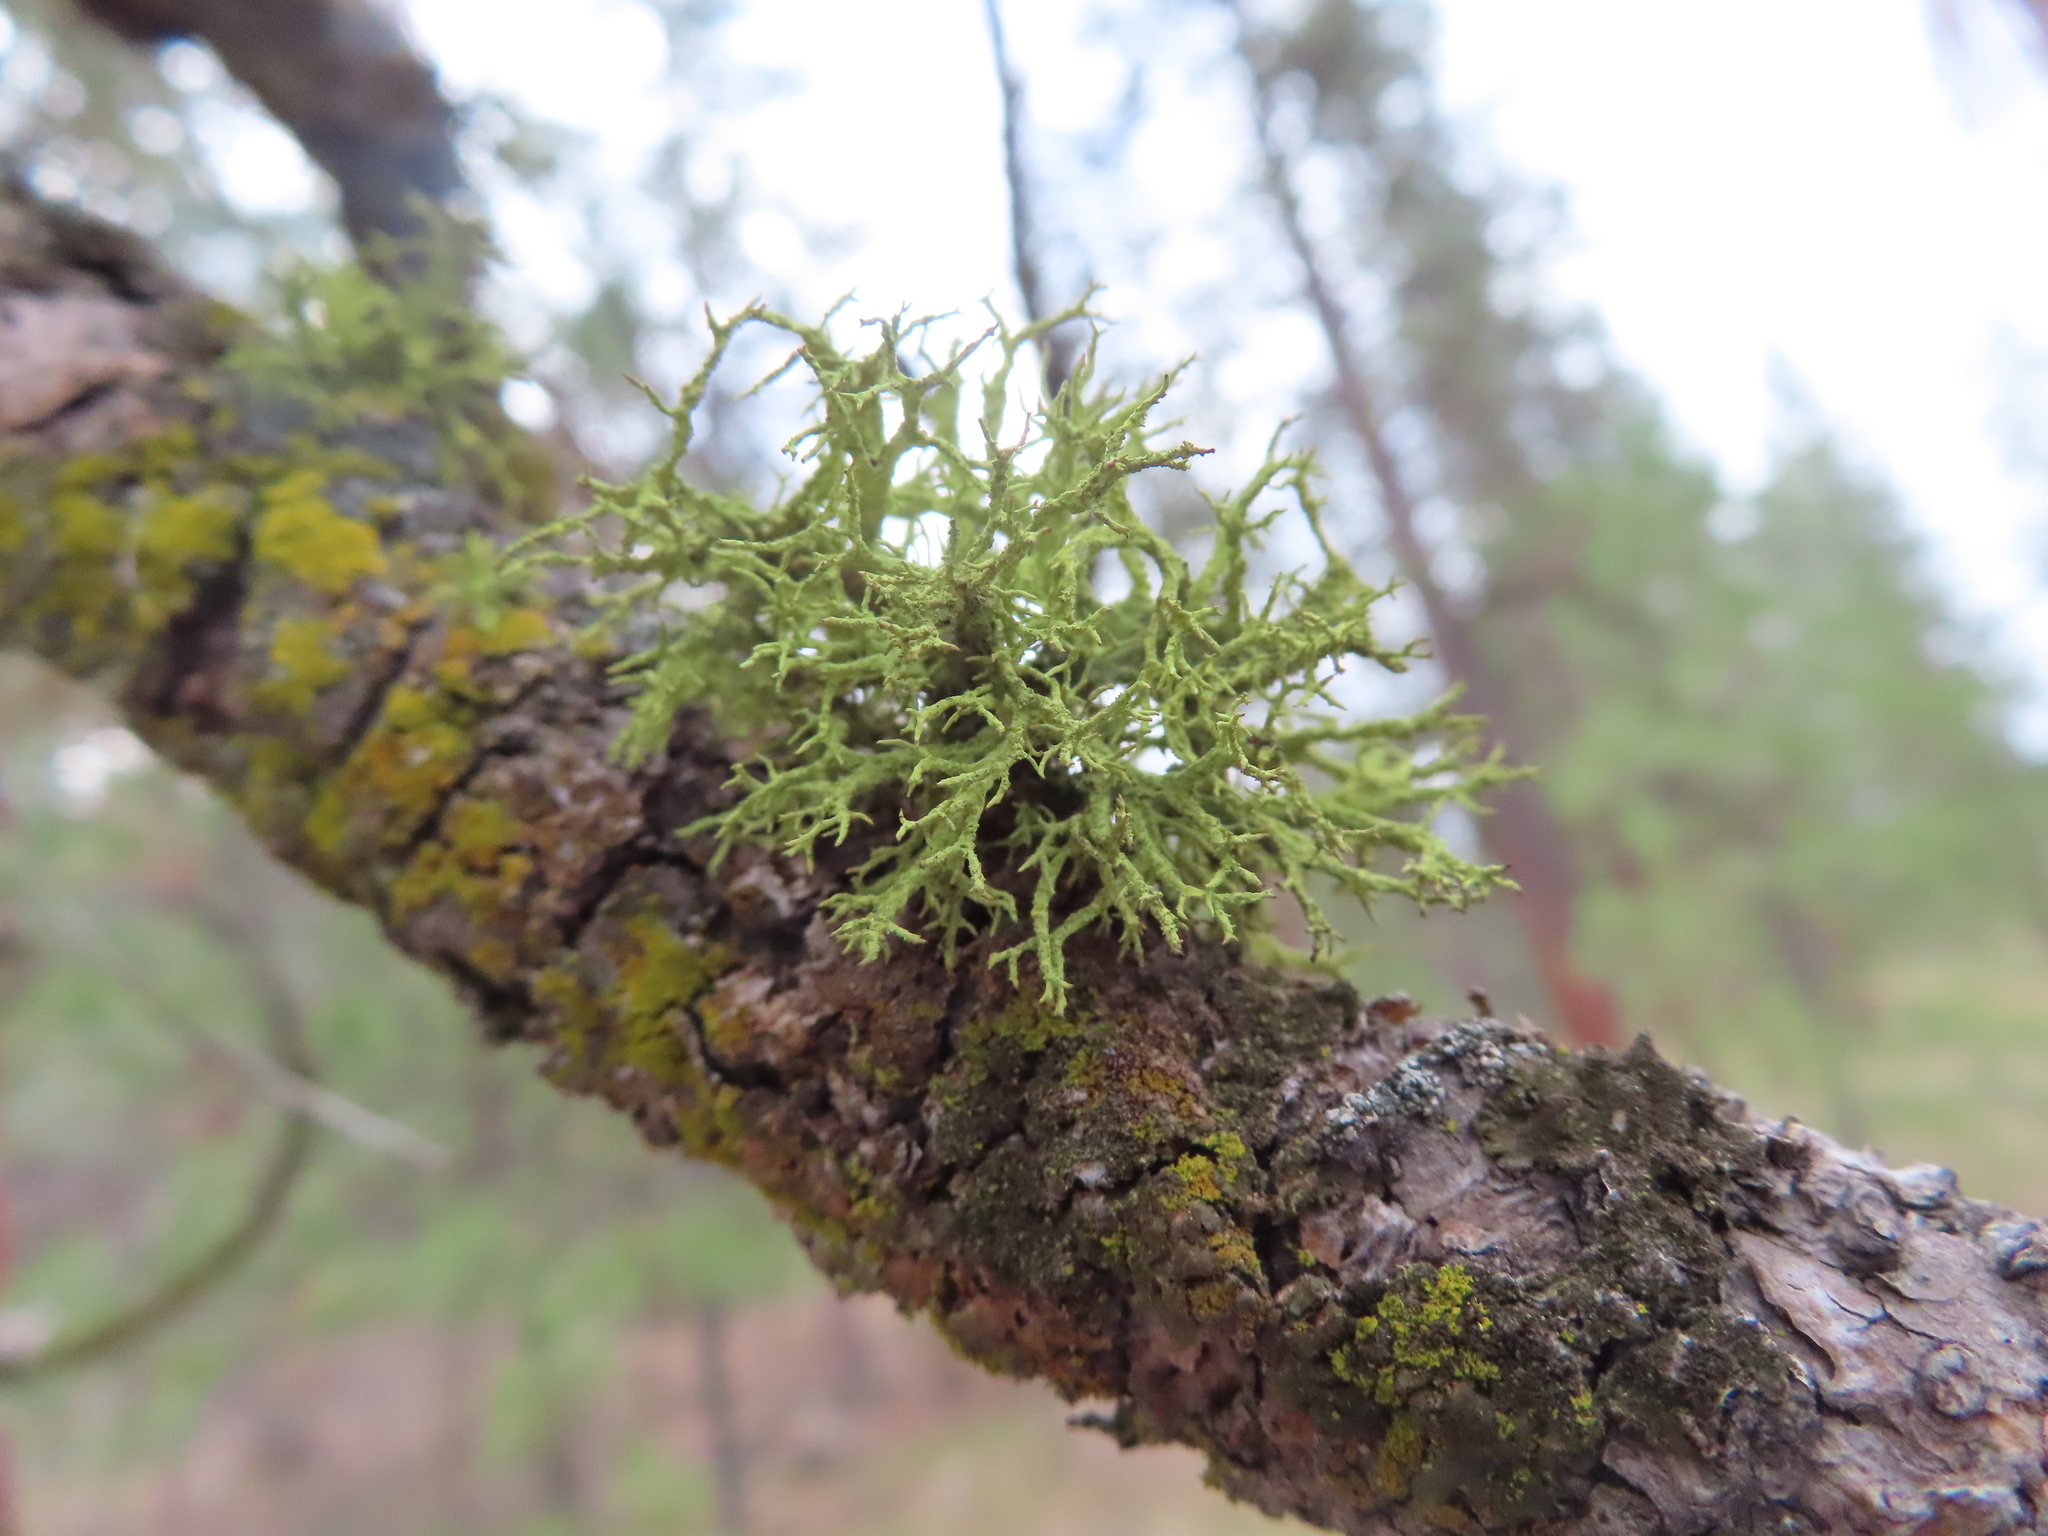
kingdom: Fungi
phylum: Ascomycota
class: Lecanoromycetes
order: Lecanorales
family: Parmeliaceae
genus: Letharia
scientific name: Letharia vulpina
